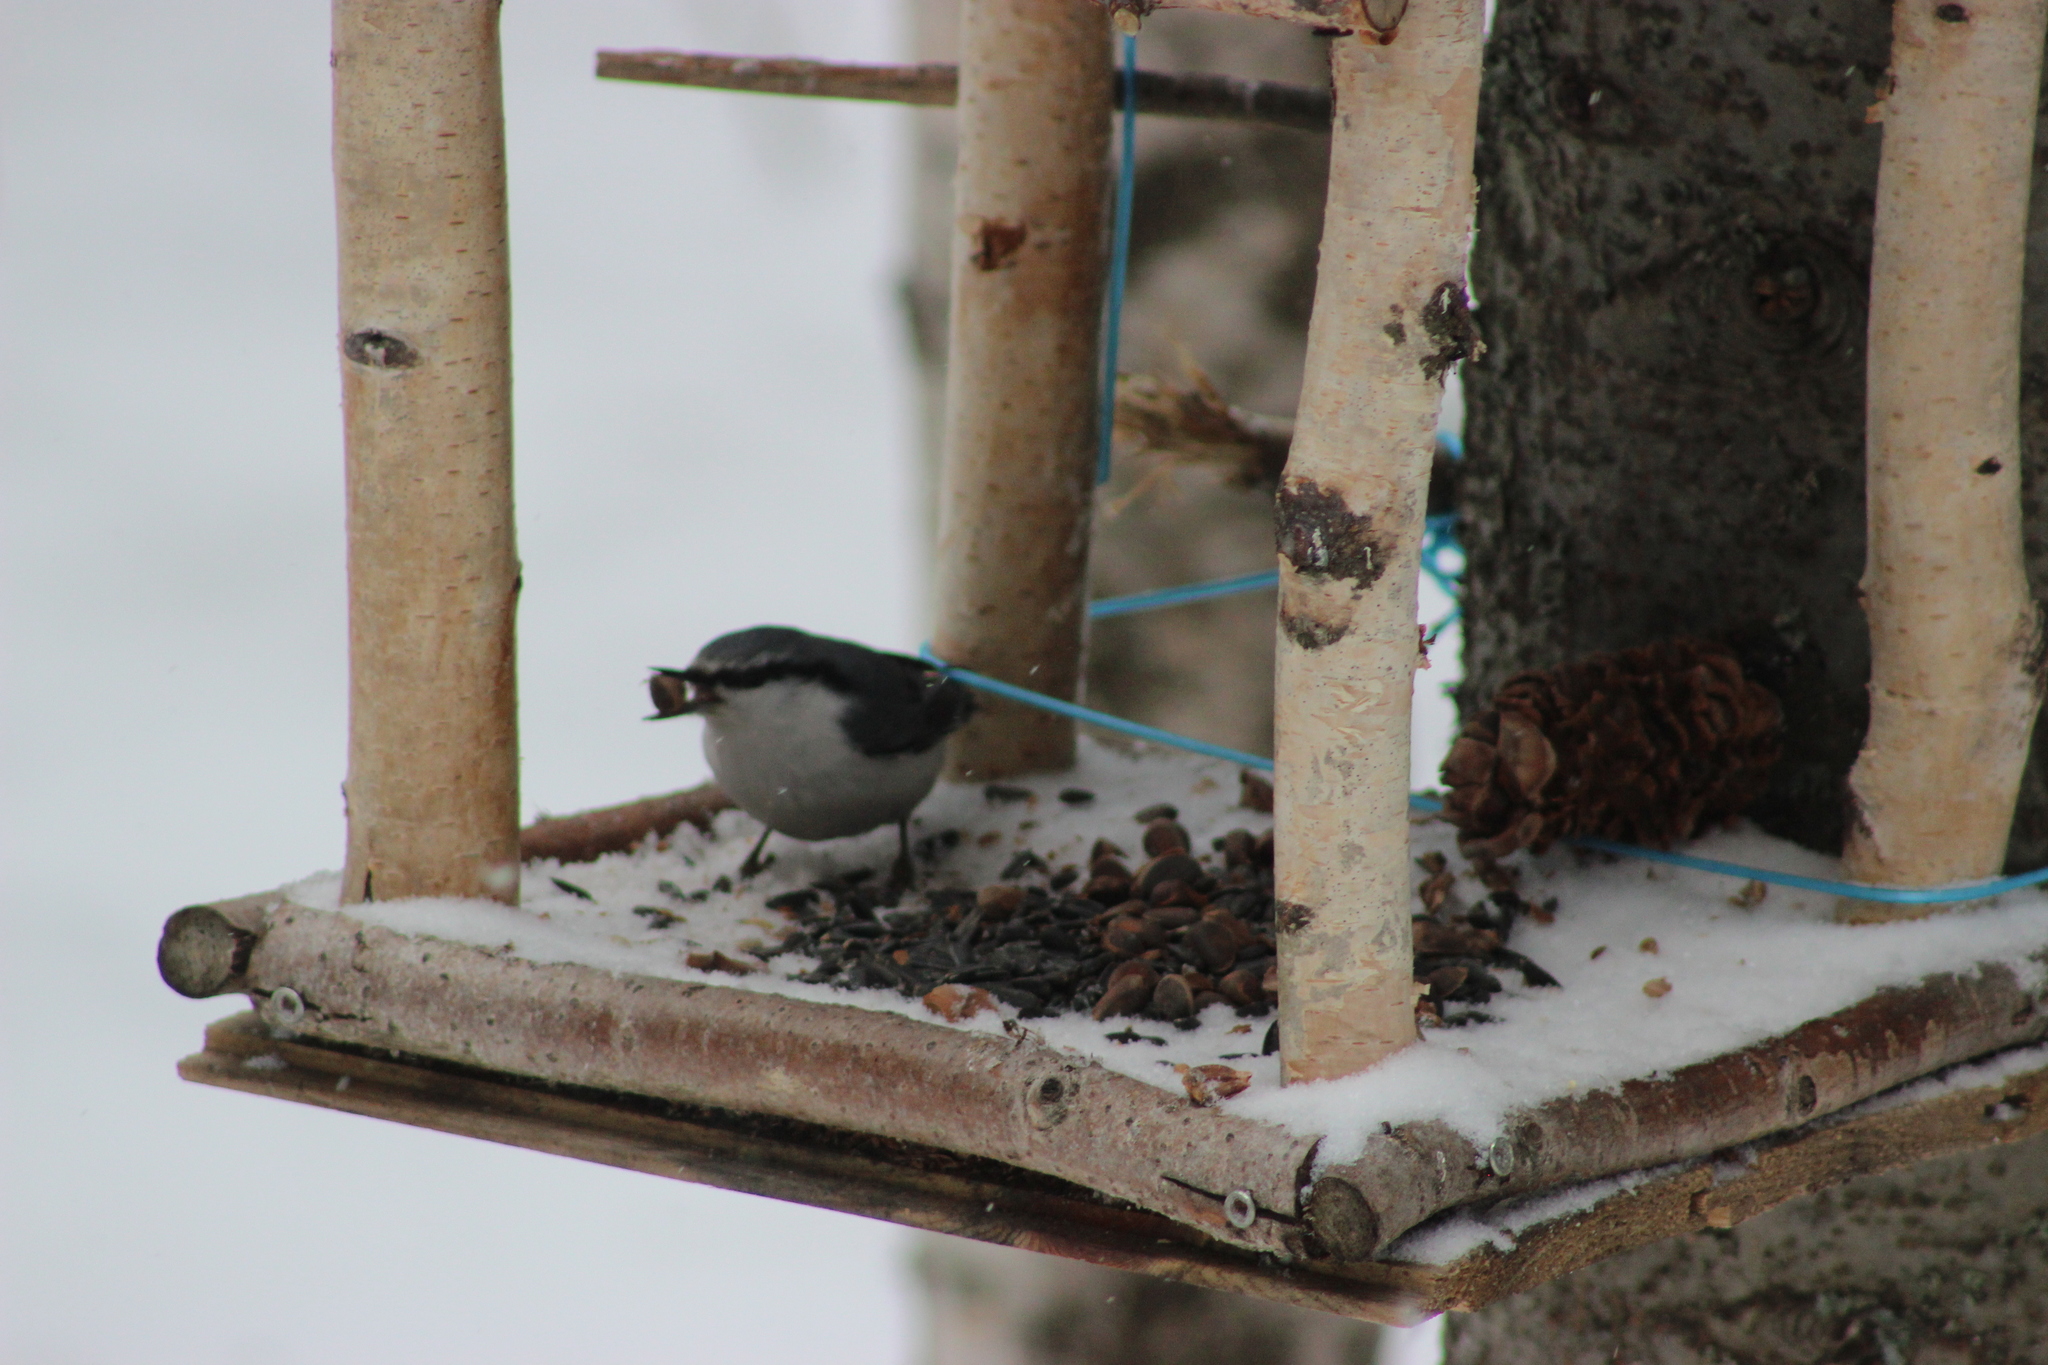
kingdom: Animalia
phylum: Chordata
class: Aves
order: Passeriformes
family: Sittidae
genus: Sitta
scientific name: Sitta europaea
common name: Eurasian nuthatch
